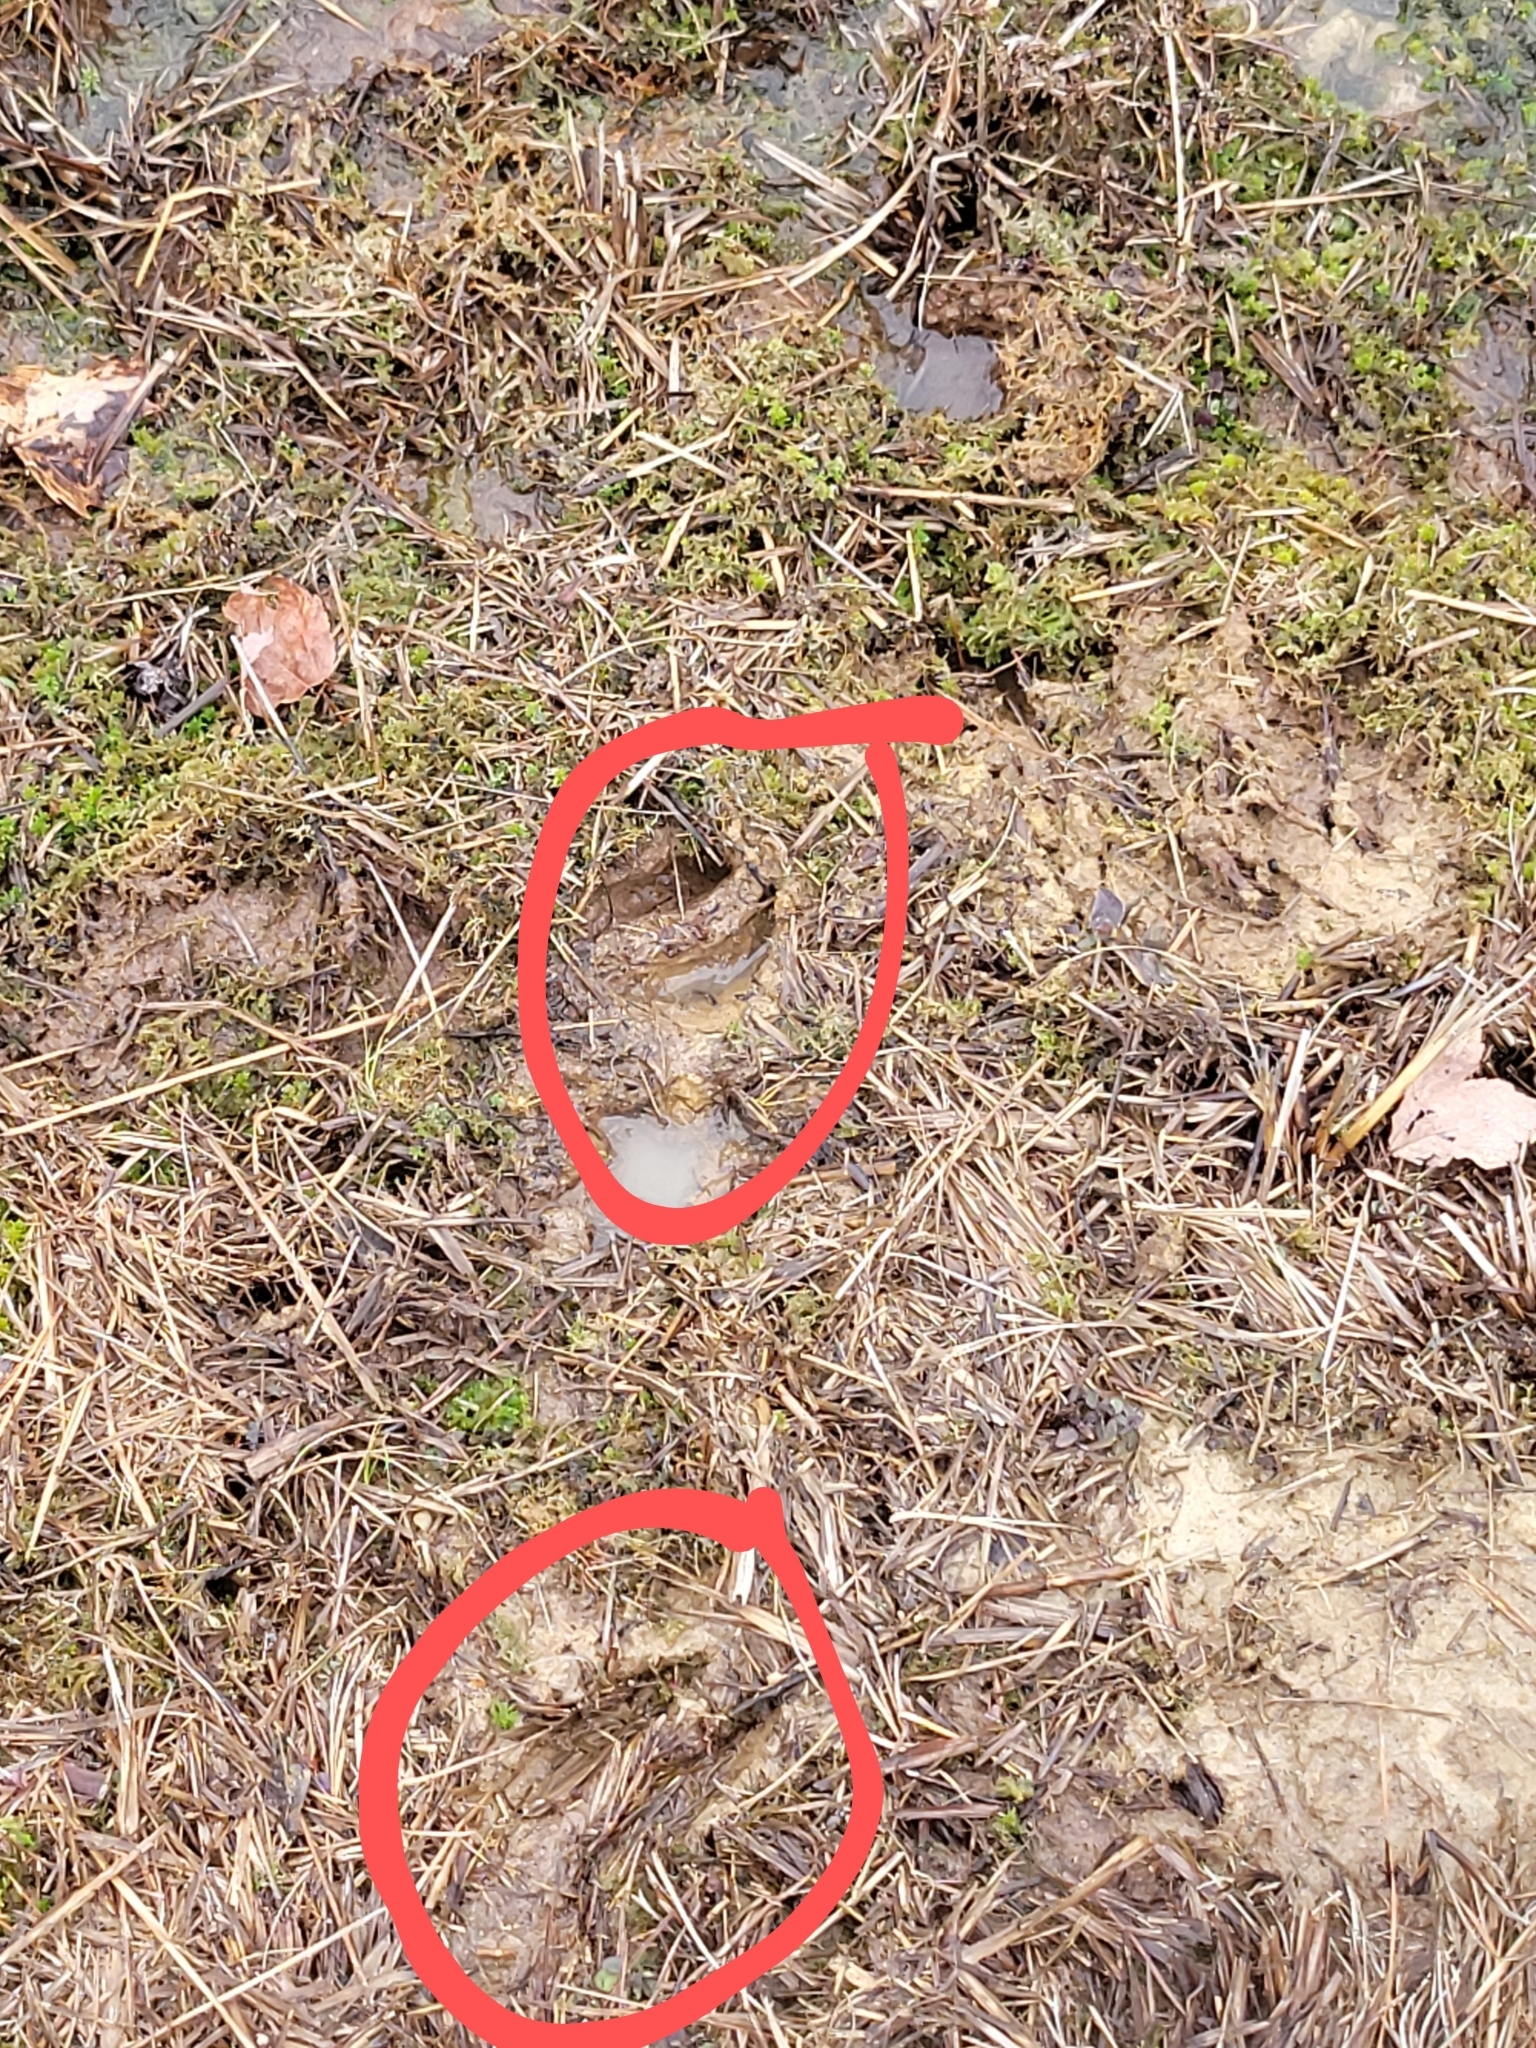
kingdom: Animalia
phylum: Chordata
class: Mammalia
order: Artiodactyla
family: Cervidae
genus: Odocoileus
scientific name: Odocoileus virginianus
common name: White-tailed deer
